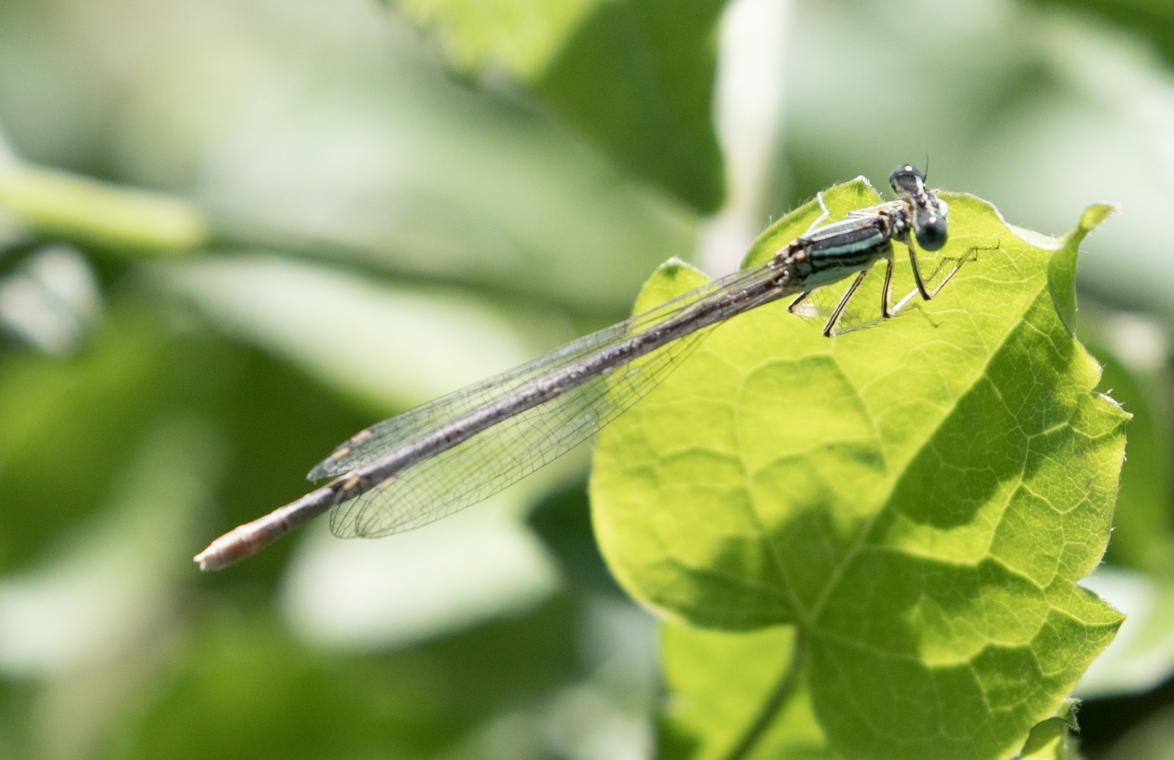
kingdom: Animalia
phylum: Arthropoda
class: Insecta
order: Odonata
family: Platycnemididae
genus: Platycnemis
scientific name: Platycnemis pennipes
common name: White-legged damselfly
